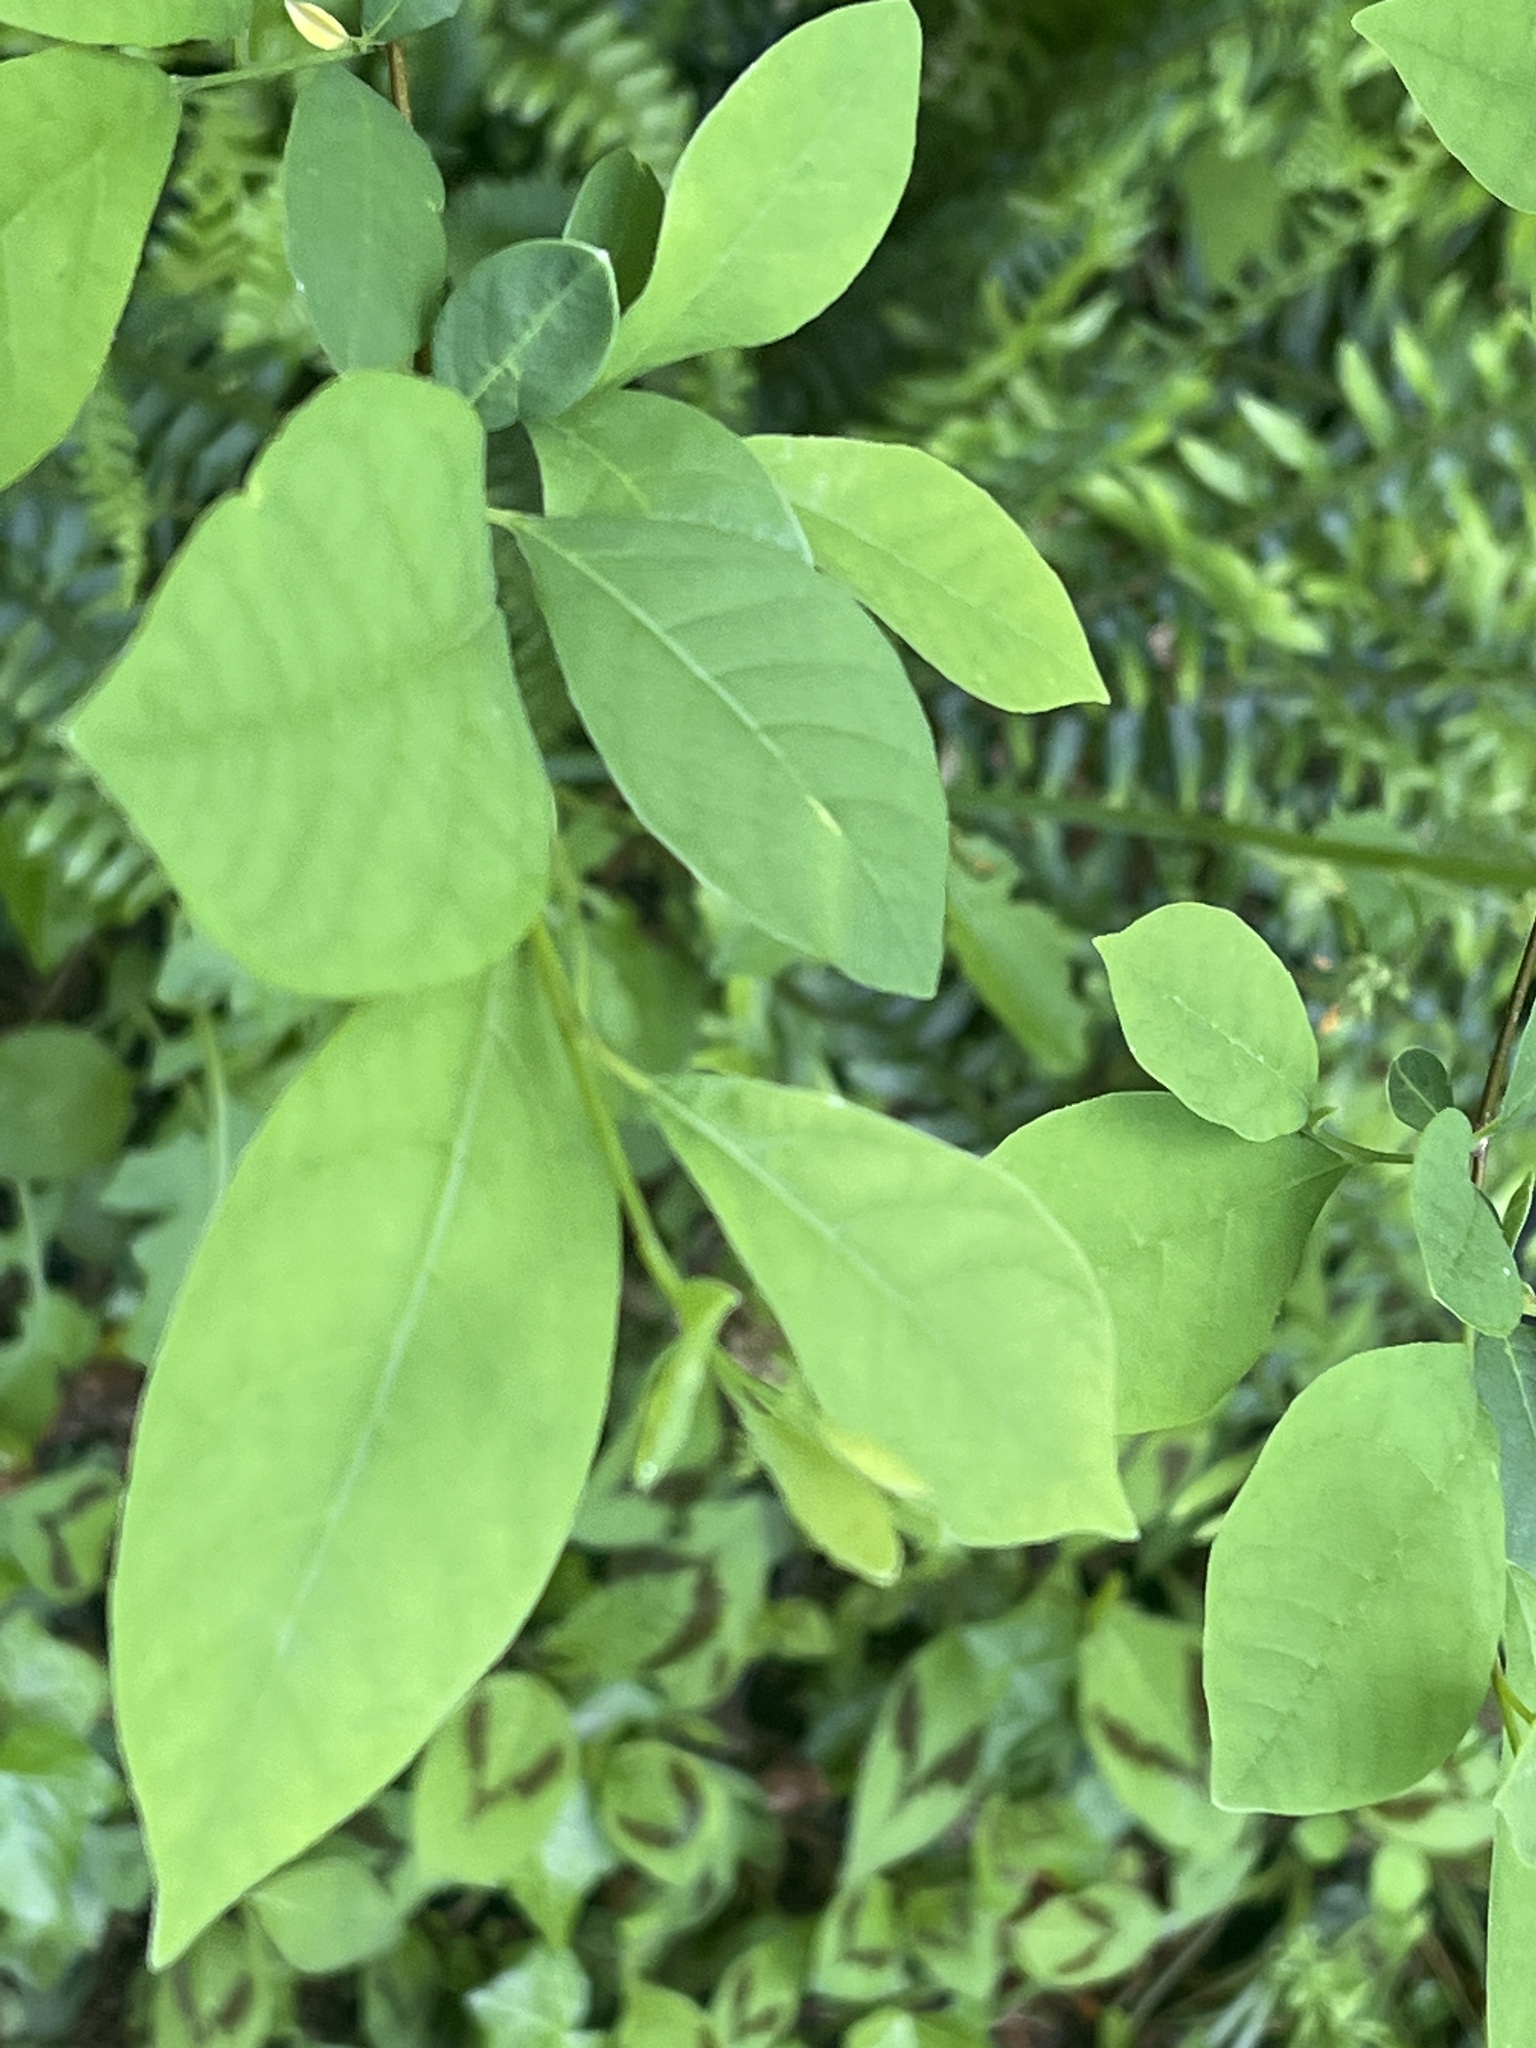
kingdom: Plantae
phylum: Tracheophyta
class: Magnoliopsida
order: Laurales
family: Lauraceae
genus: Lindera
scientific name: Lindera benzoin
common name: Spicebush
